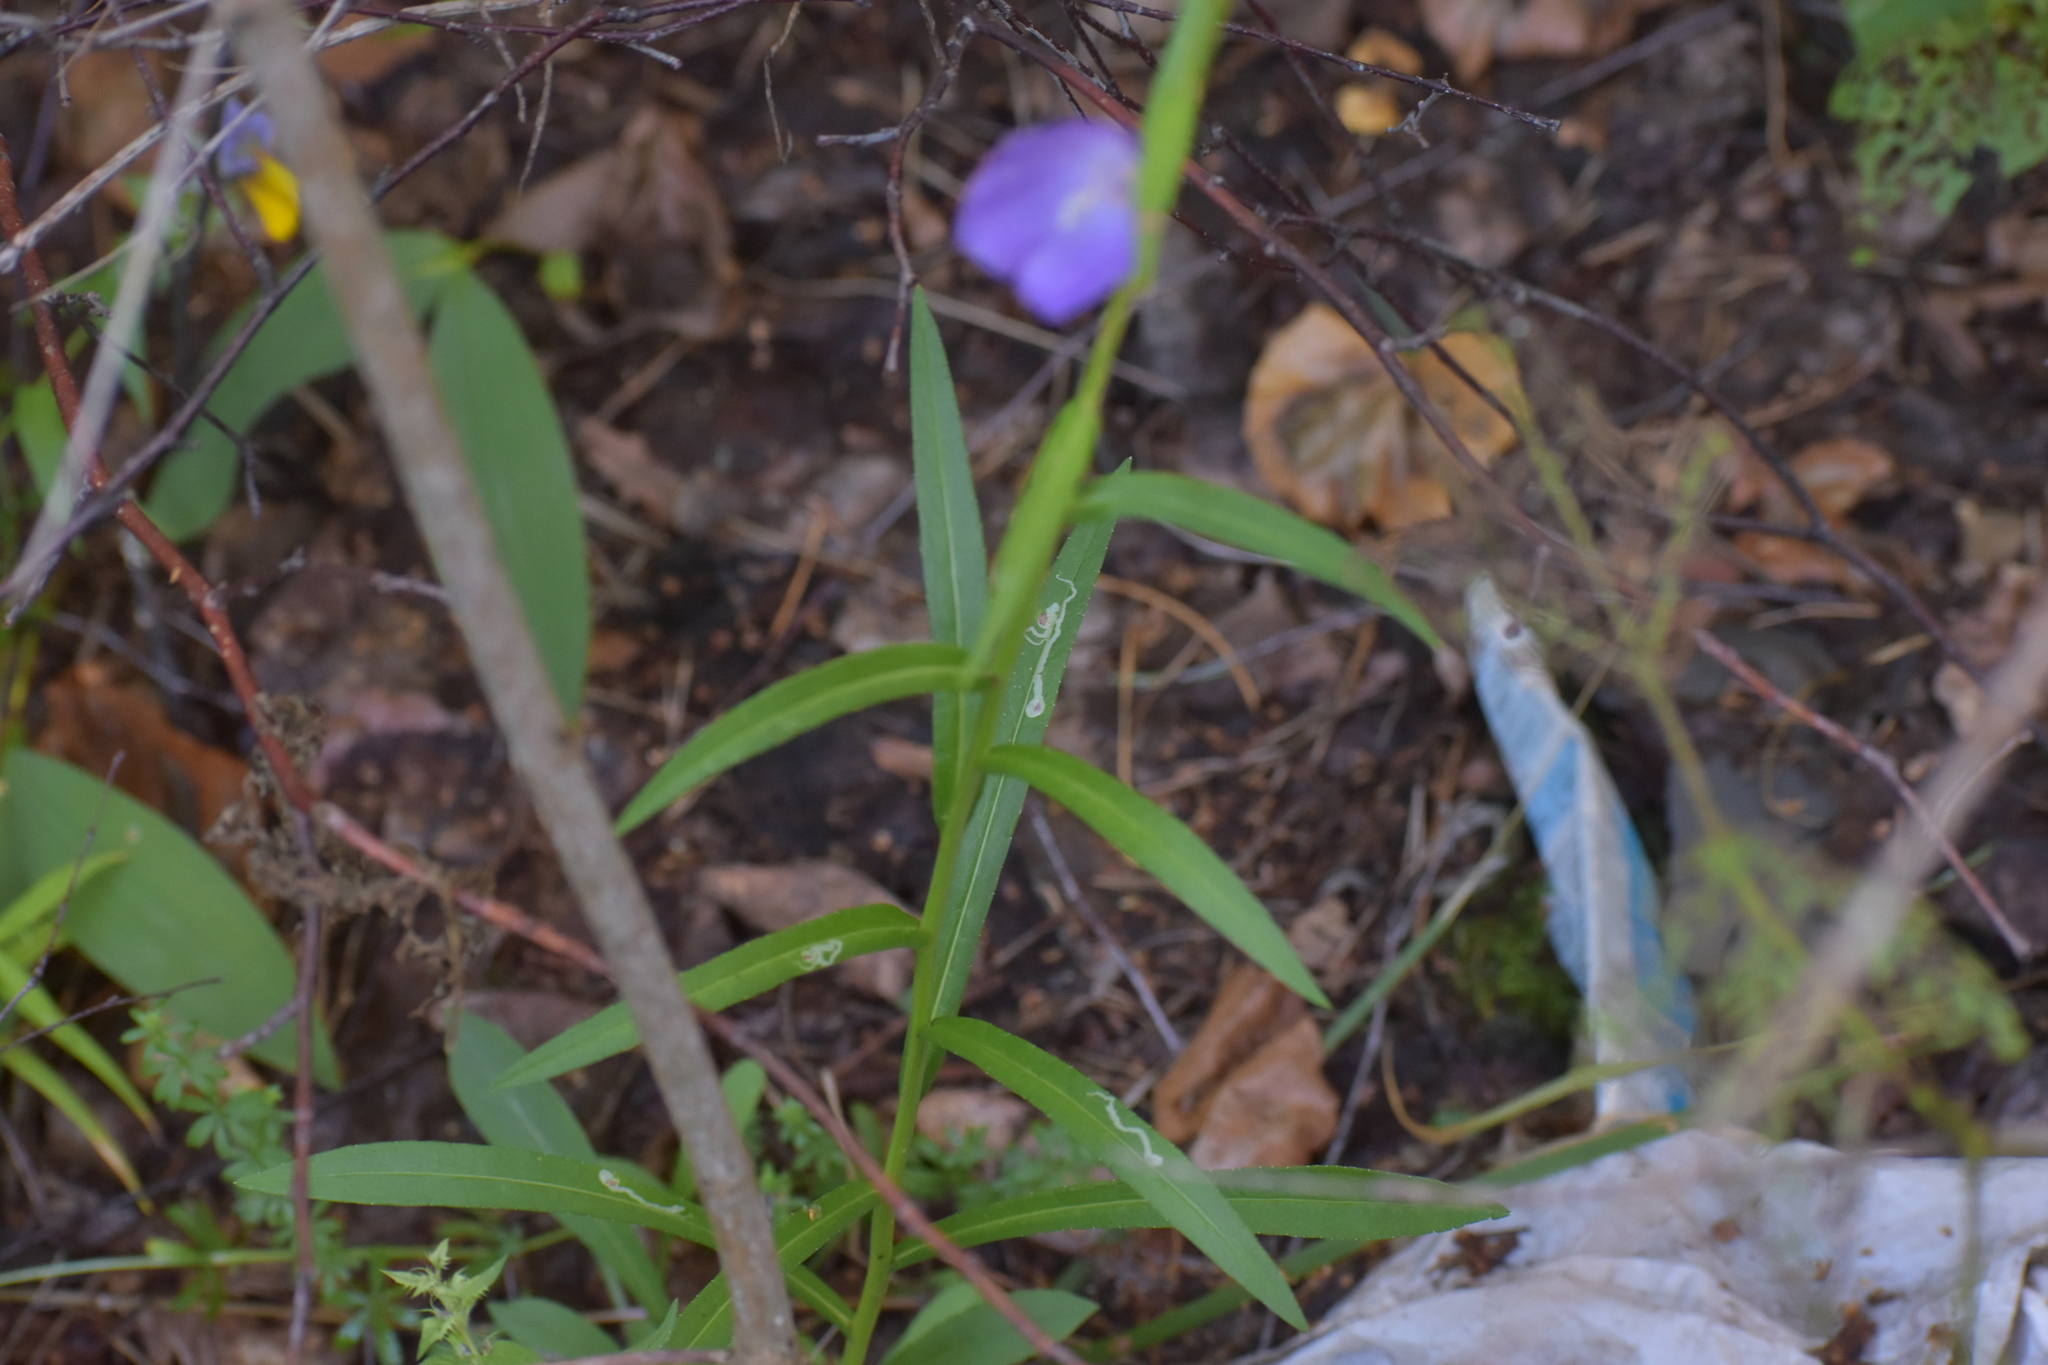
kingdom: Plantae
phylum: Tracheophyta
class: Magnoliopsida
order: Asterales
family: Campanulaceae
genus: Campanula
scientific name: Campanula persicifolia
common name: Peach-leaved bellflower
